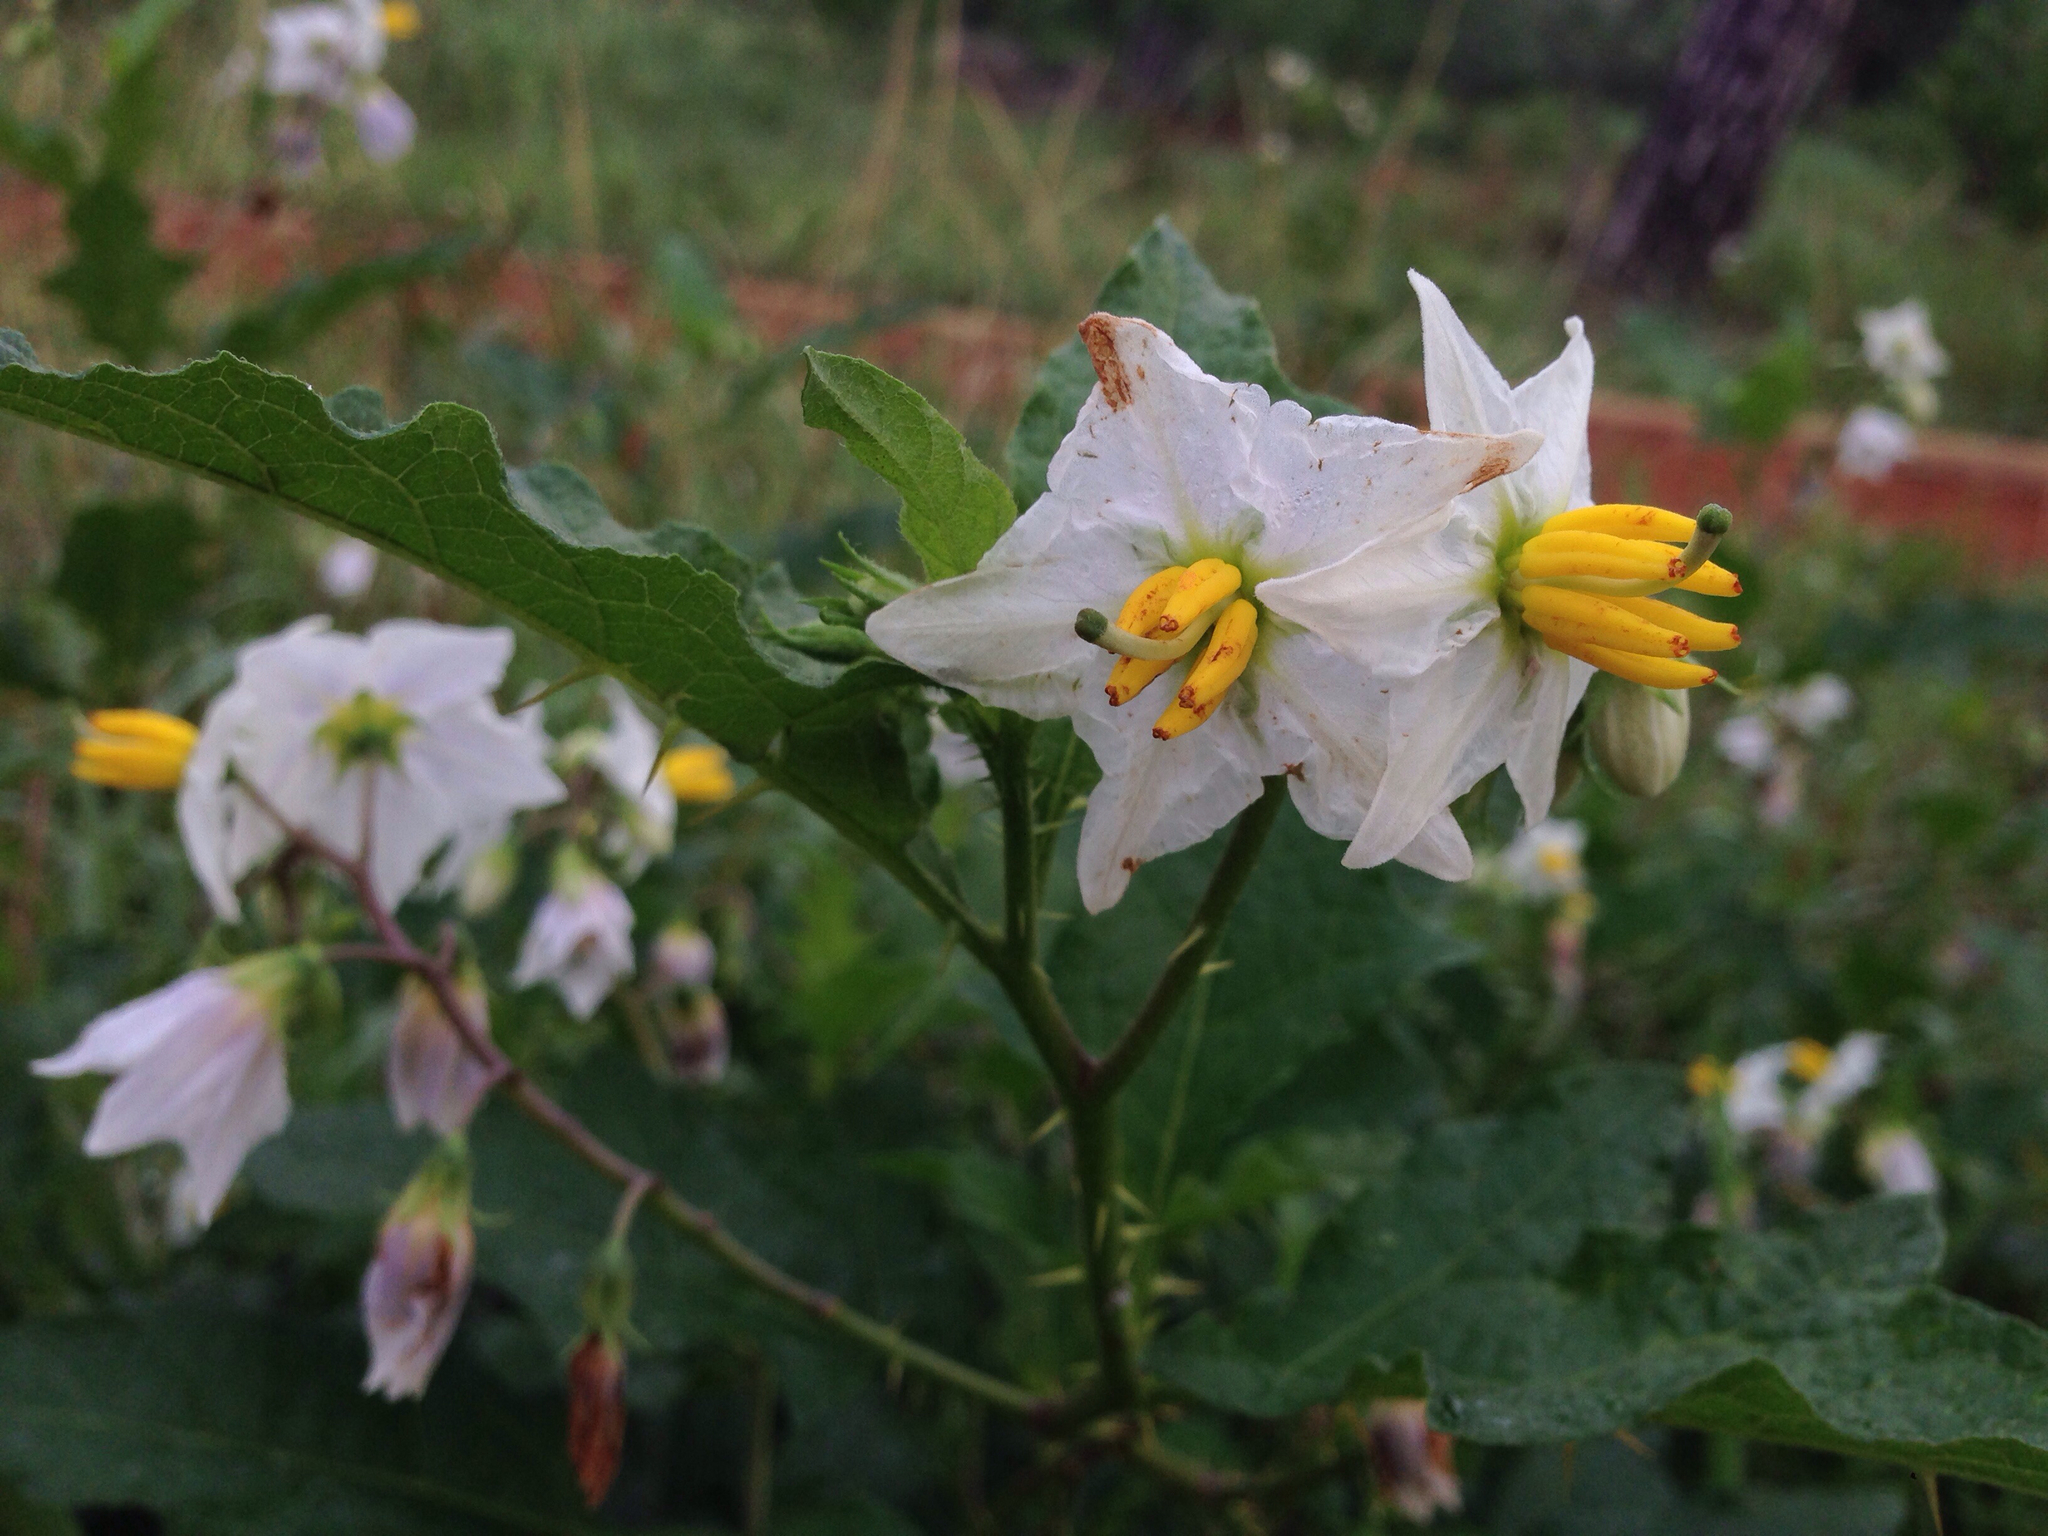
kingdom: Plantae
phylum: Tracheophyta
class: Magnoliopsida
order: Solanales
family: Solanaceae
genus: Solanum
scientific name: Solanum carolinense
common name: Horse-nettle
